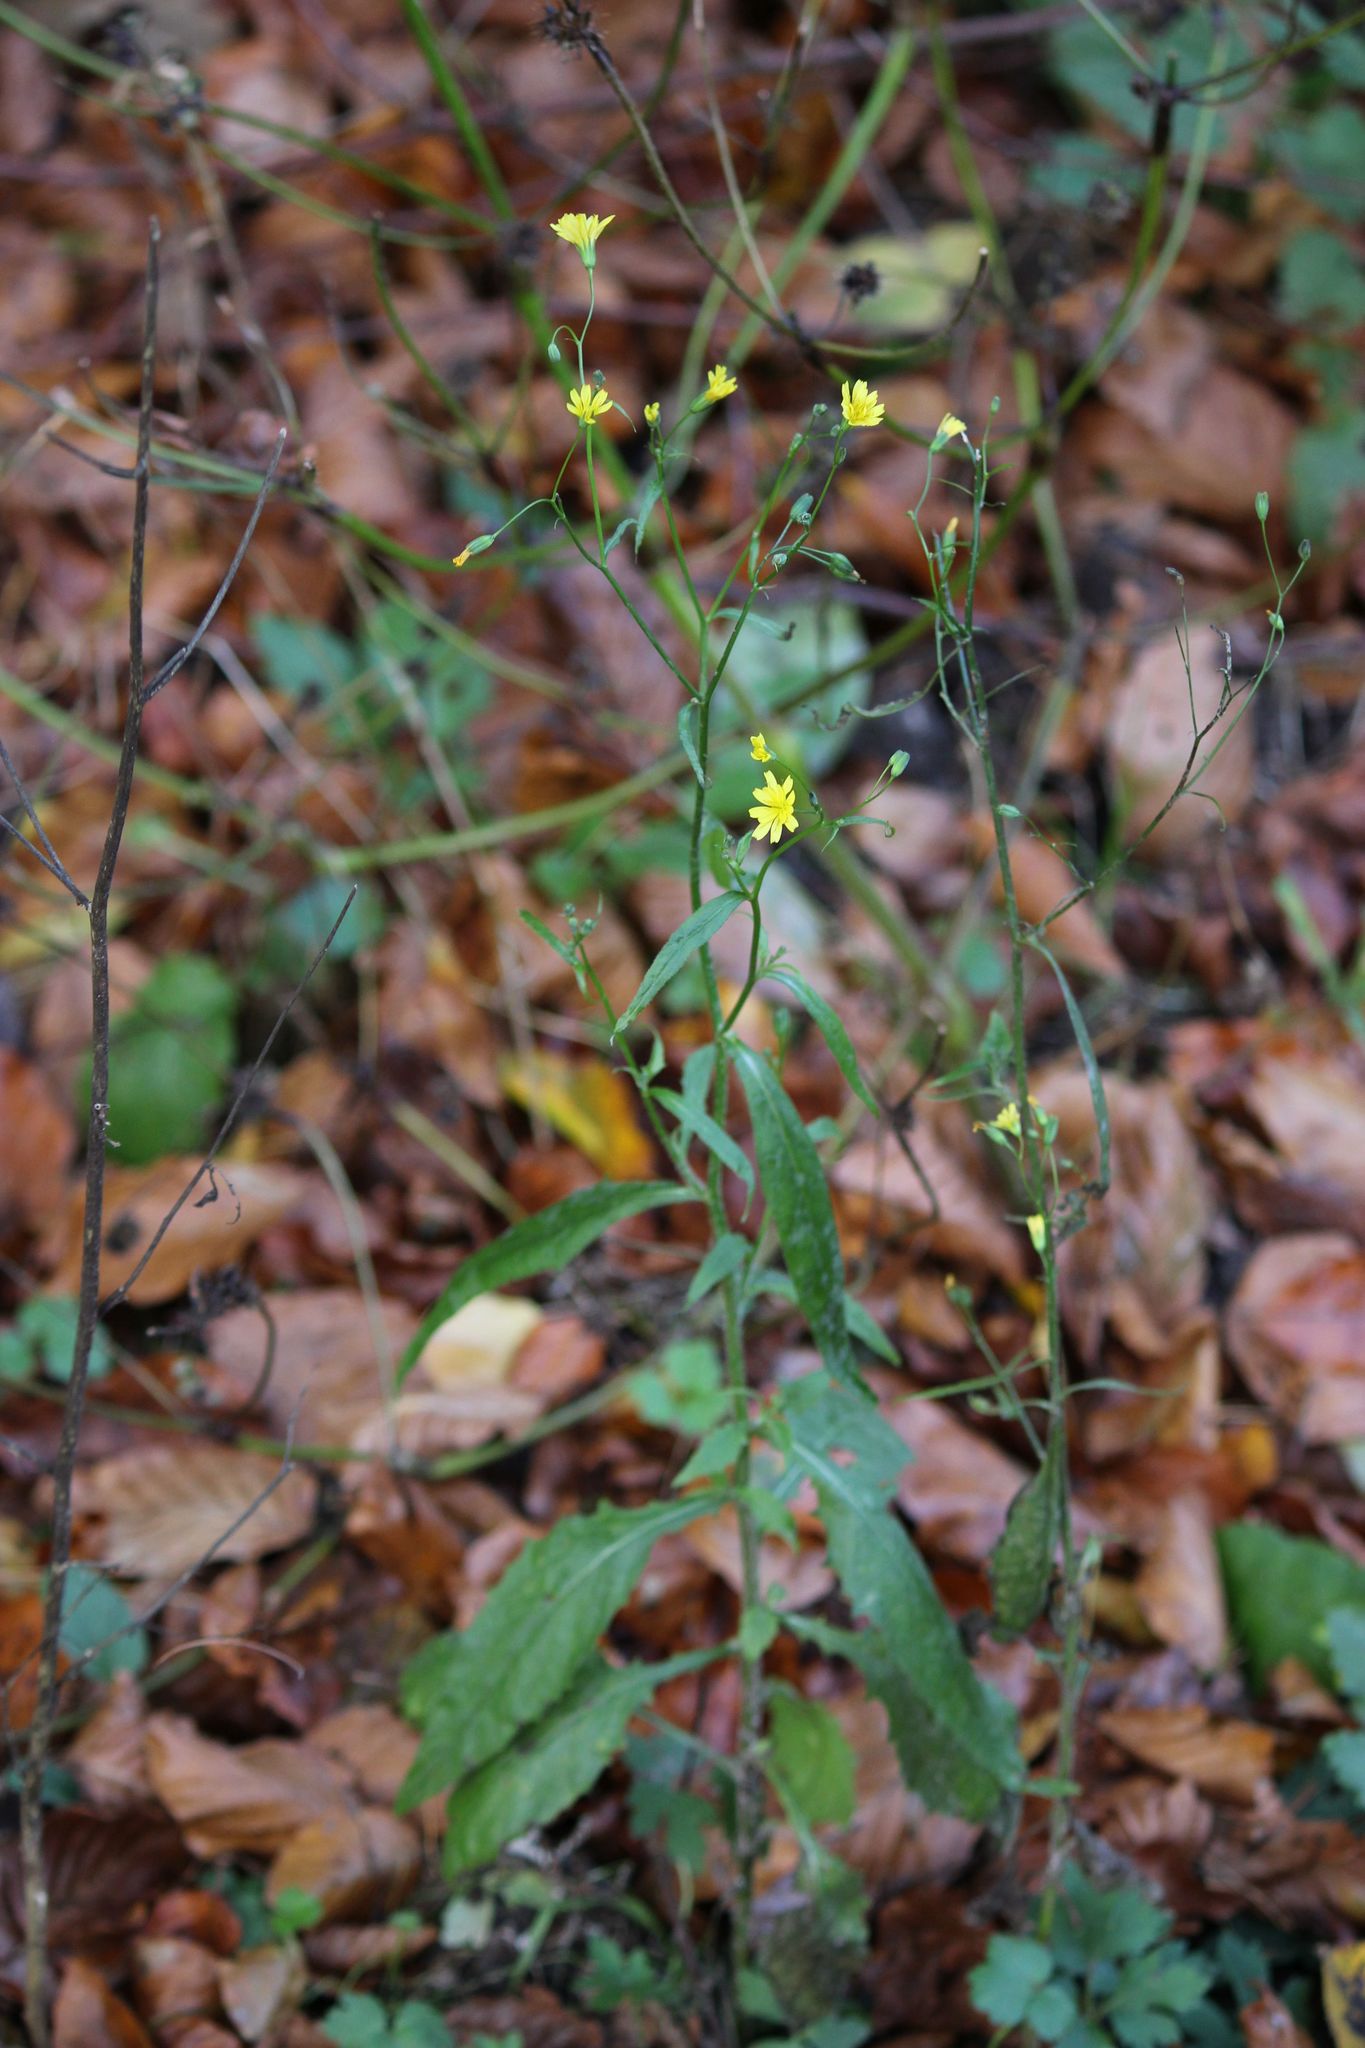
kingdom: Plantae
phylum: Tracheophyta
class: Magnoliopsida
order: Asterales
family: Asteraceae
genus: Lapsana
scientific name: Lapsana communis
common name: Nipplewort
